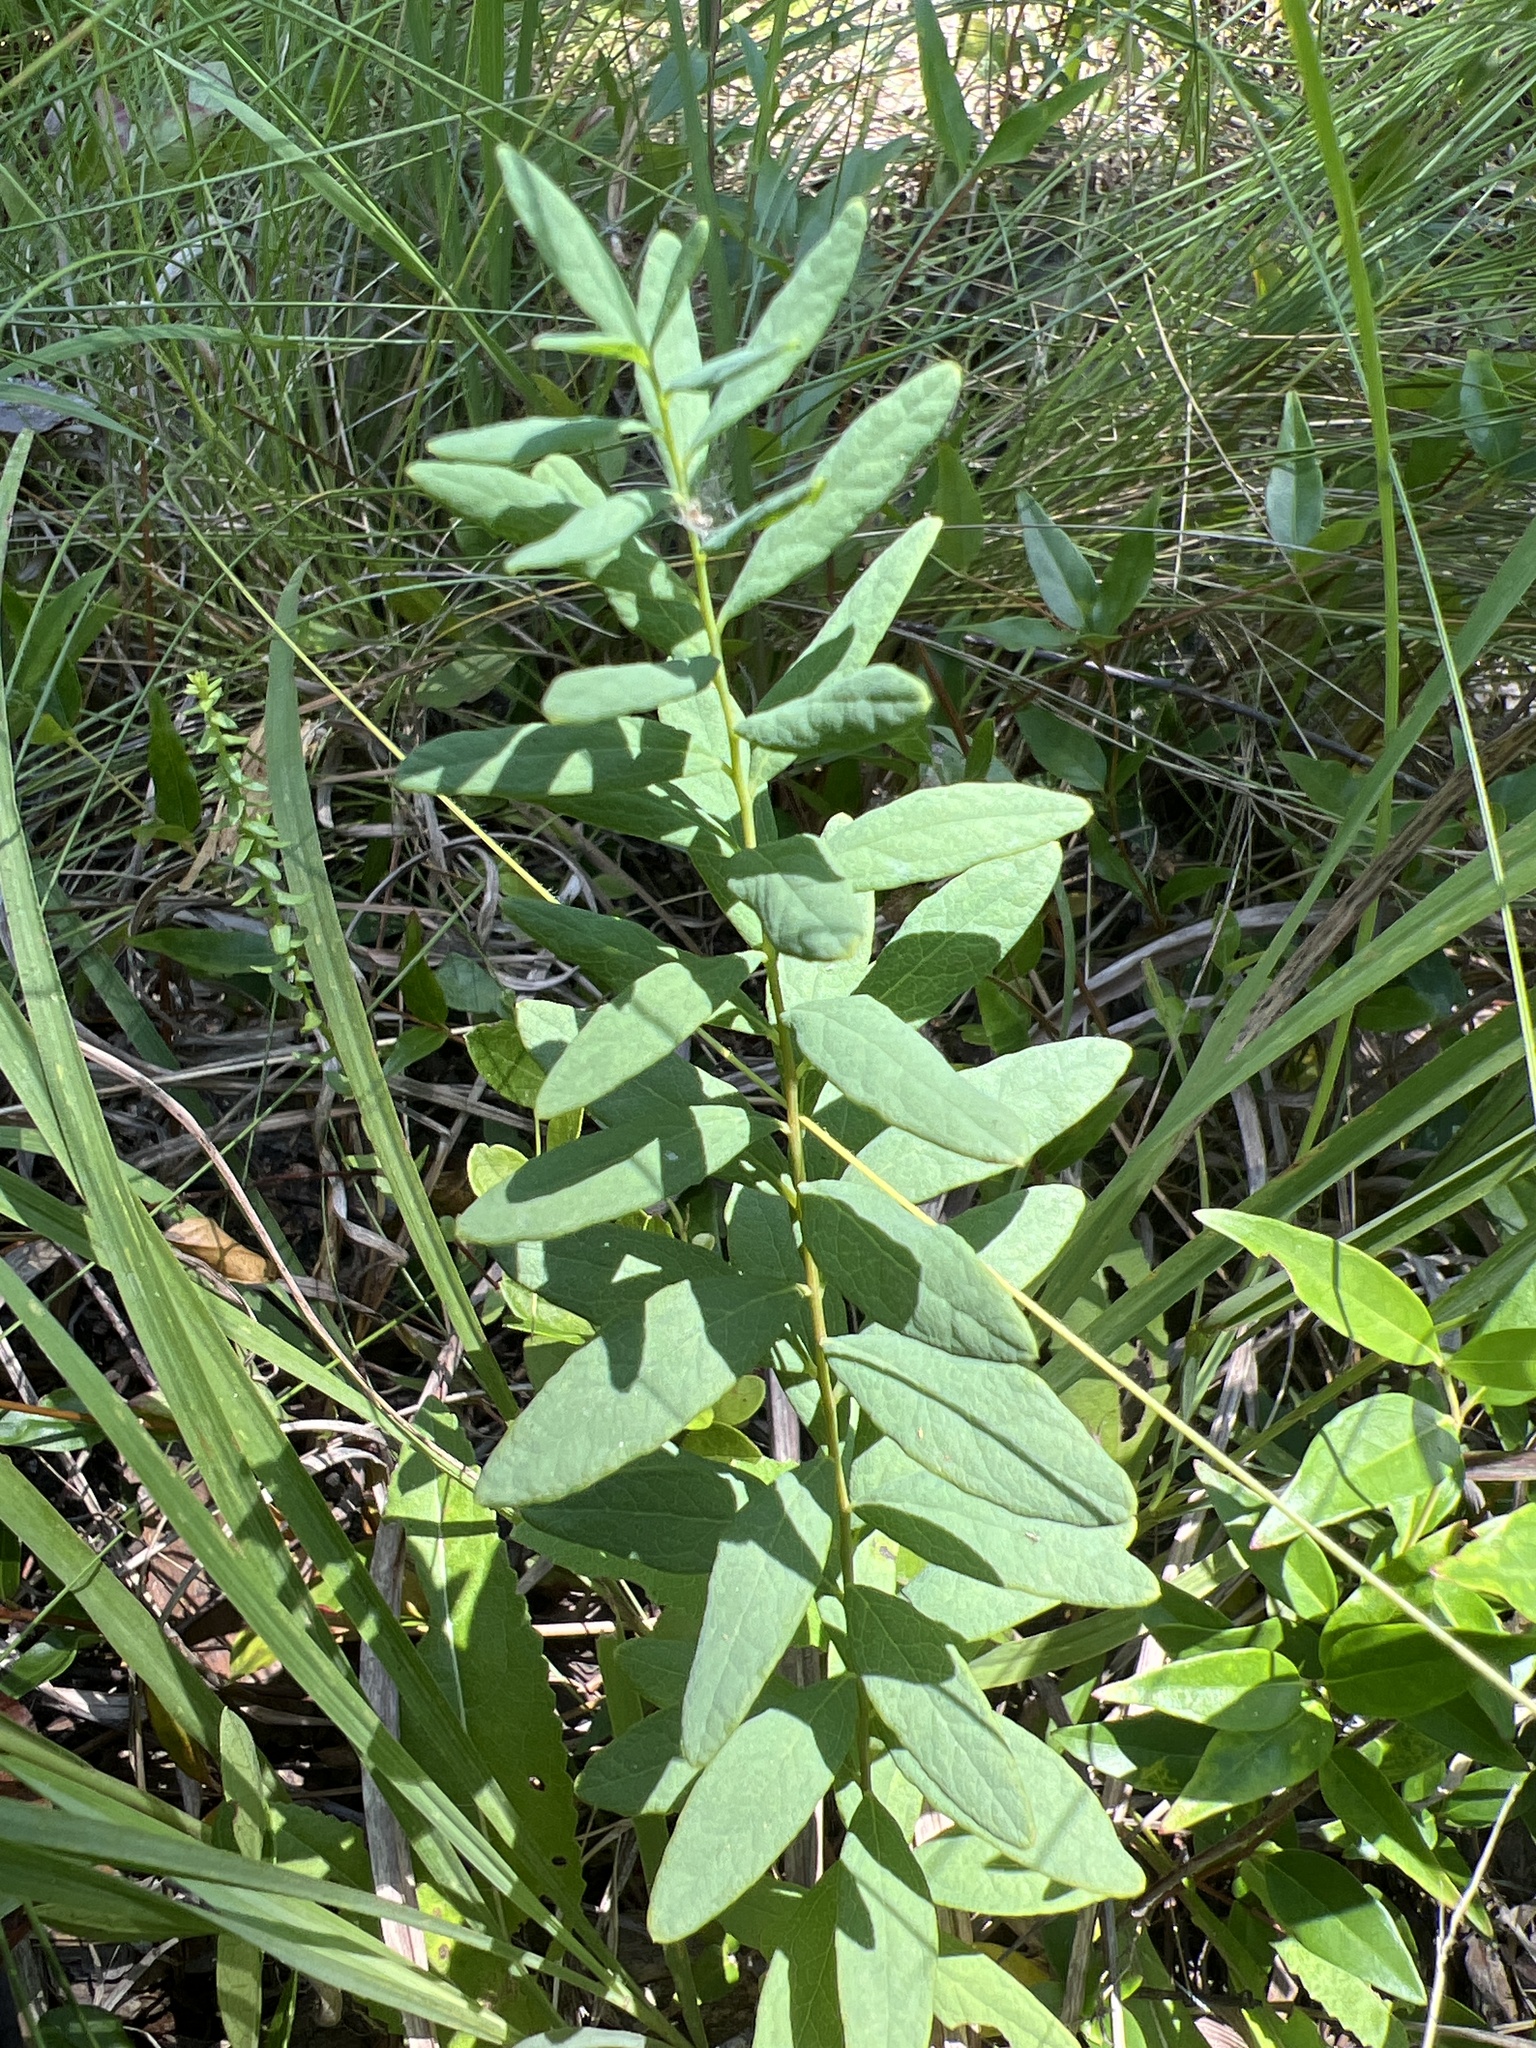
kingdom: Plantae
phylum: Tracheophyta
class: Magnoliopsida
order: Santalales
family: Comandraceae
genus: Comandra
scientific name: Comandra umbellata
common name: Bastard toadflax
